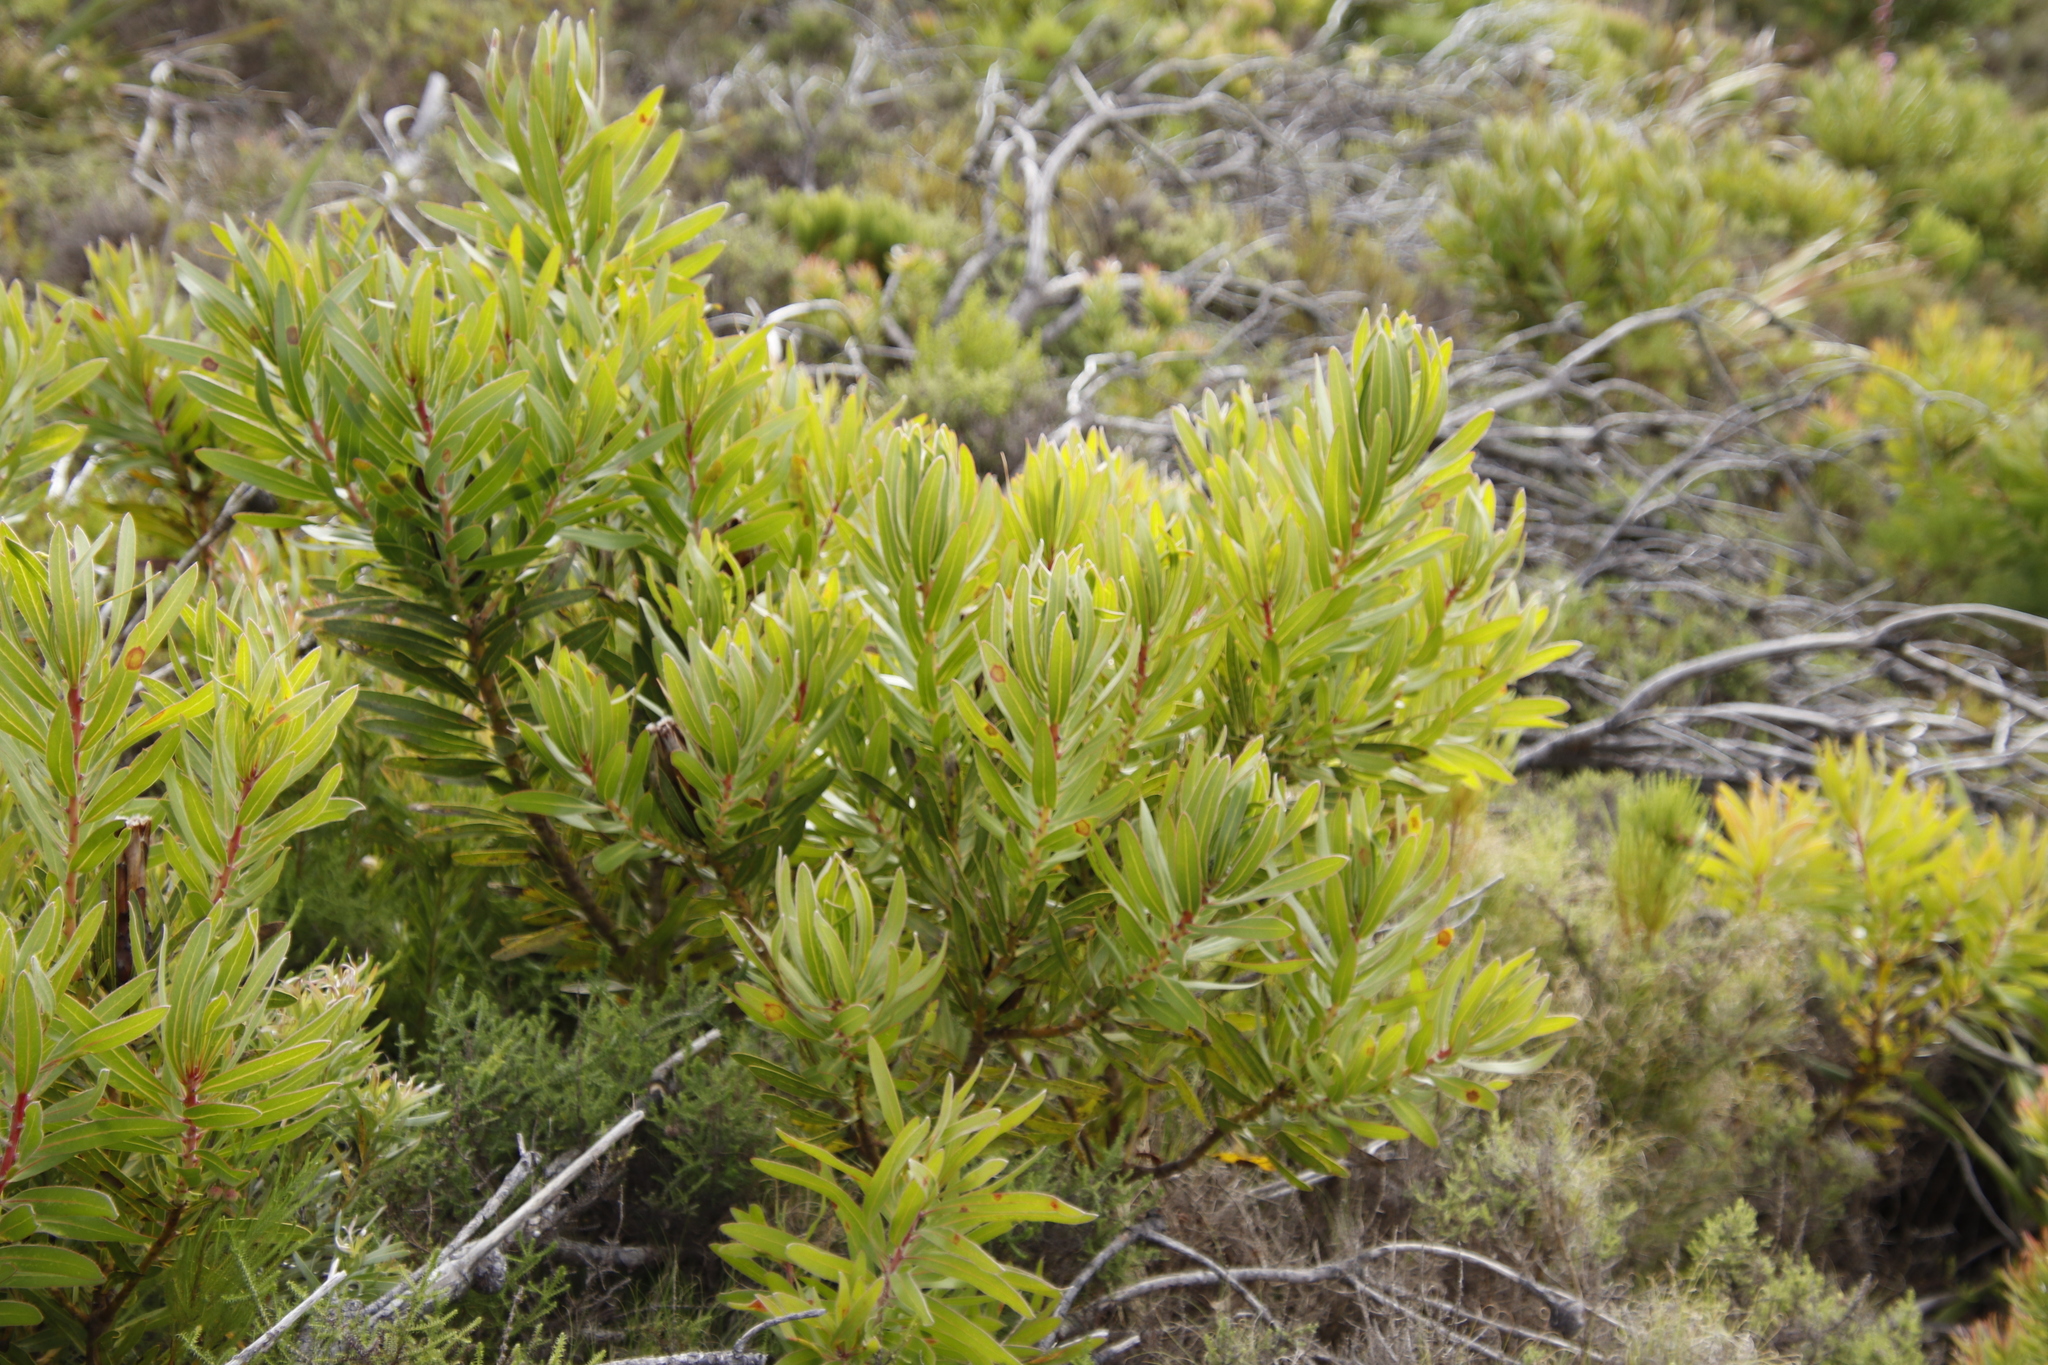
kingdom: Plantae
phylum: Tracheophyta
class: Magnoliopsida
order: Proteales
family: Proteaceae
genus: Protea
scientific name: Protea lepidocarpodendron
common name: Black-bearded protea
